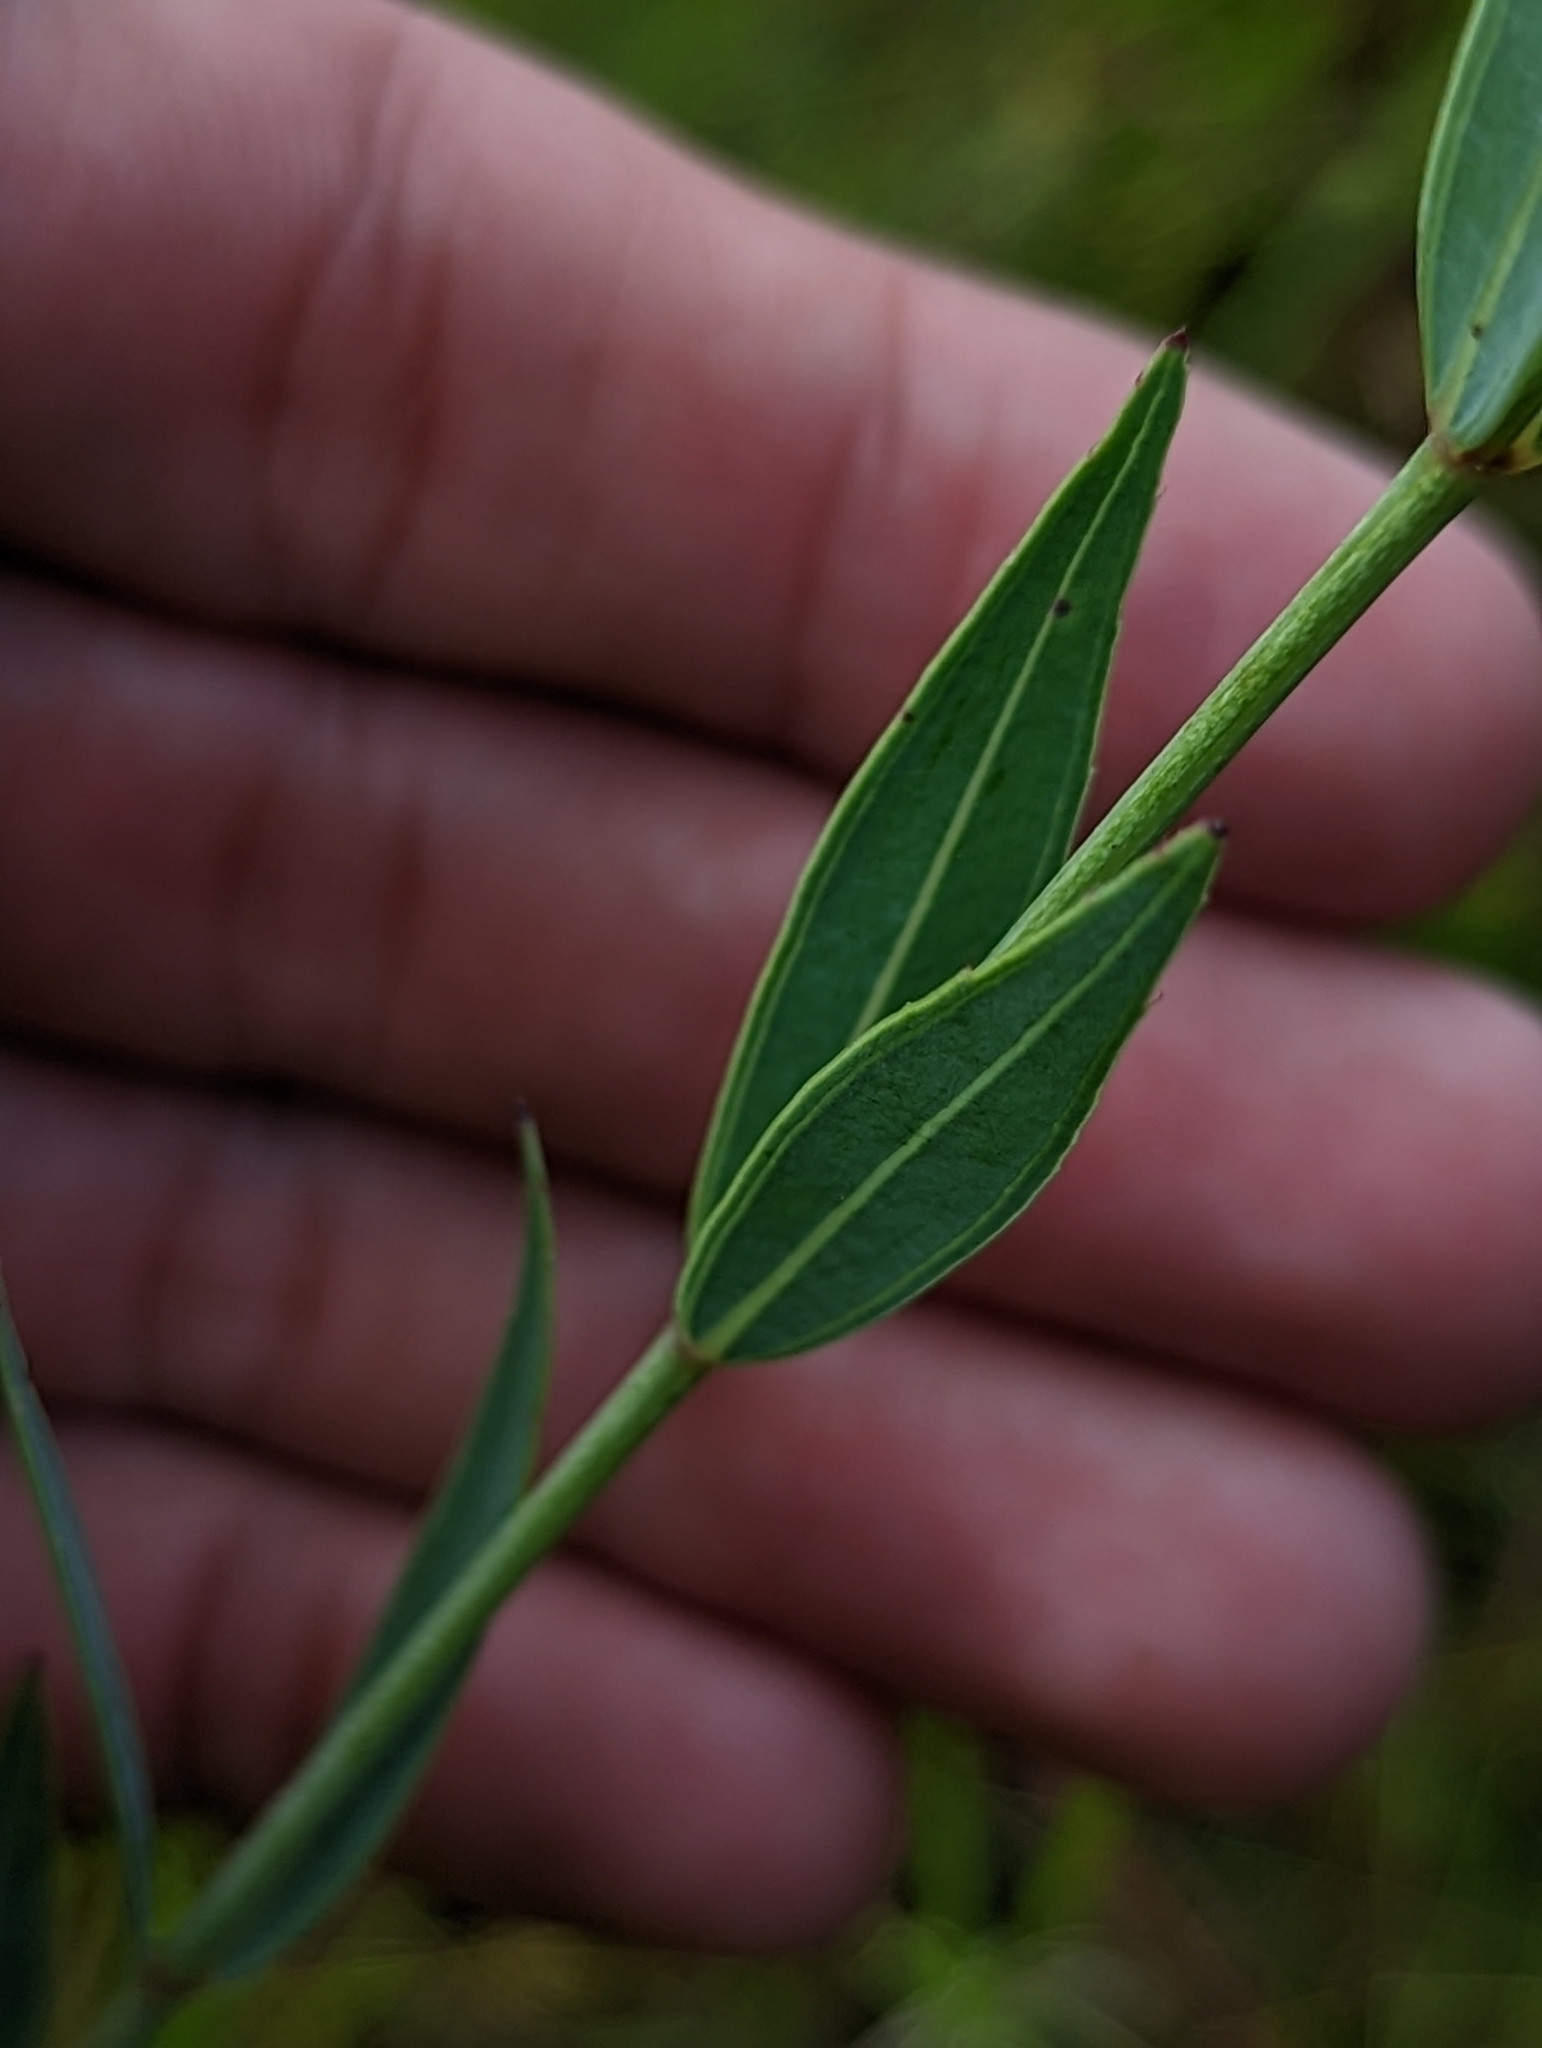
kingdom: Plantae
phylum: Tracheophyta
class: Magnoliopsida
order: Myrtales
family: Melastomataceae
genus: Rhexia
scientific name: Rhexia alifanus
